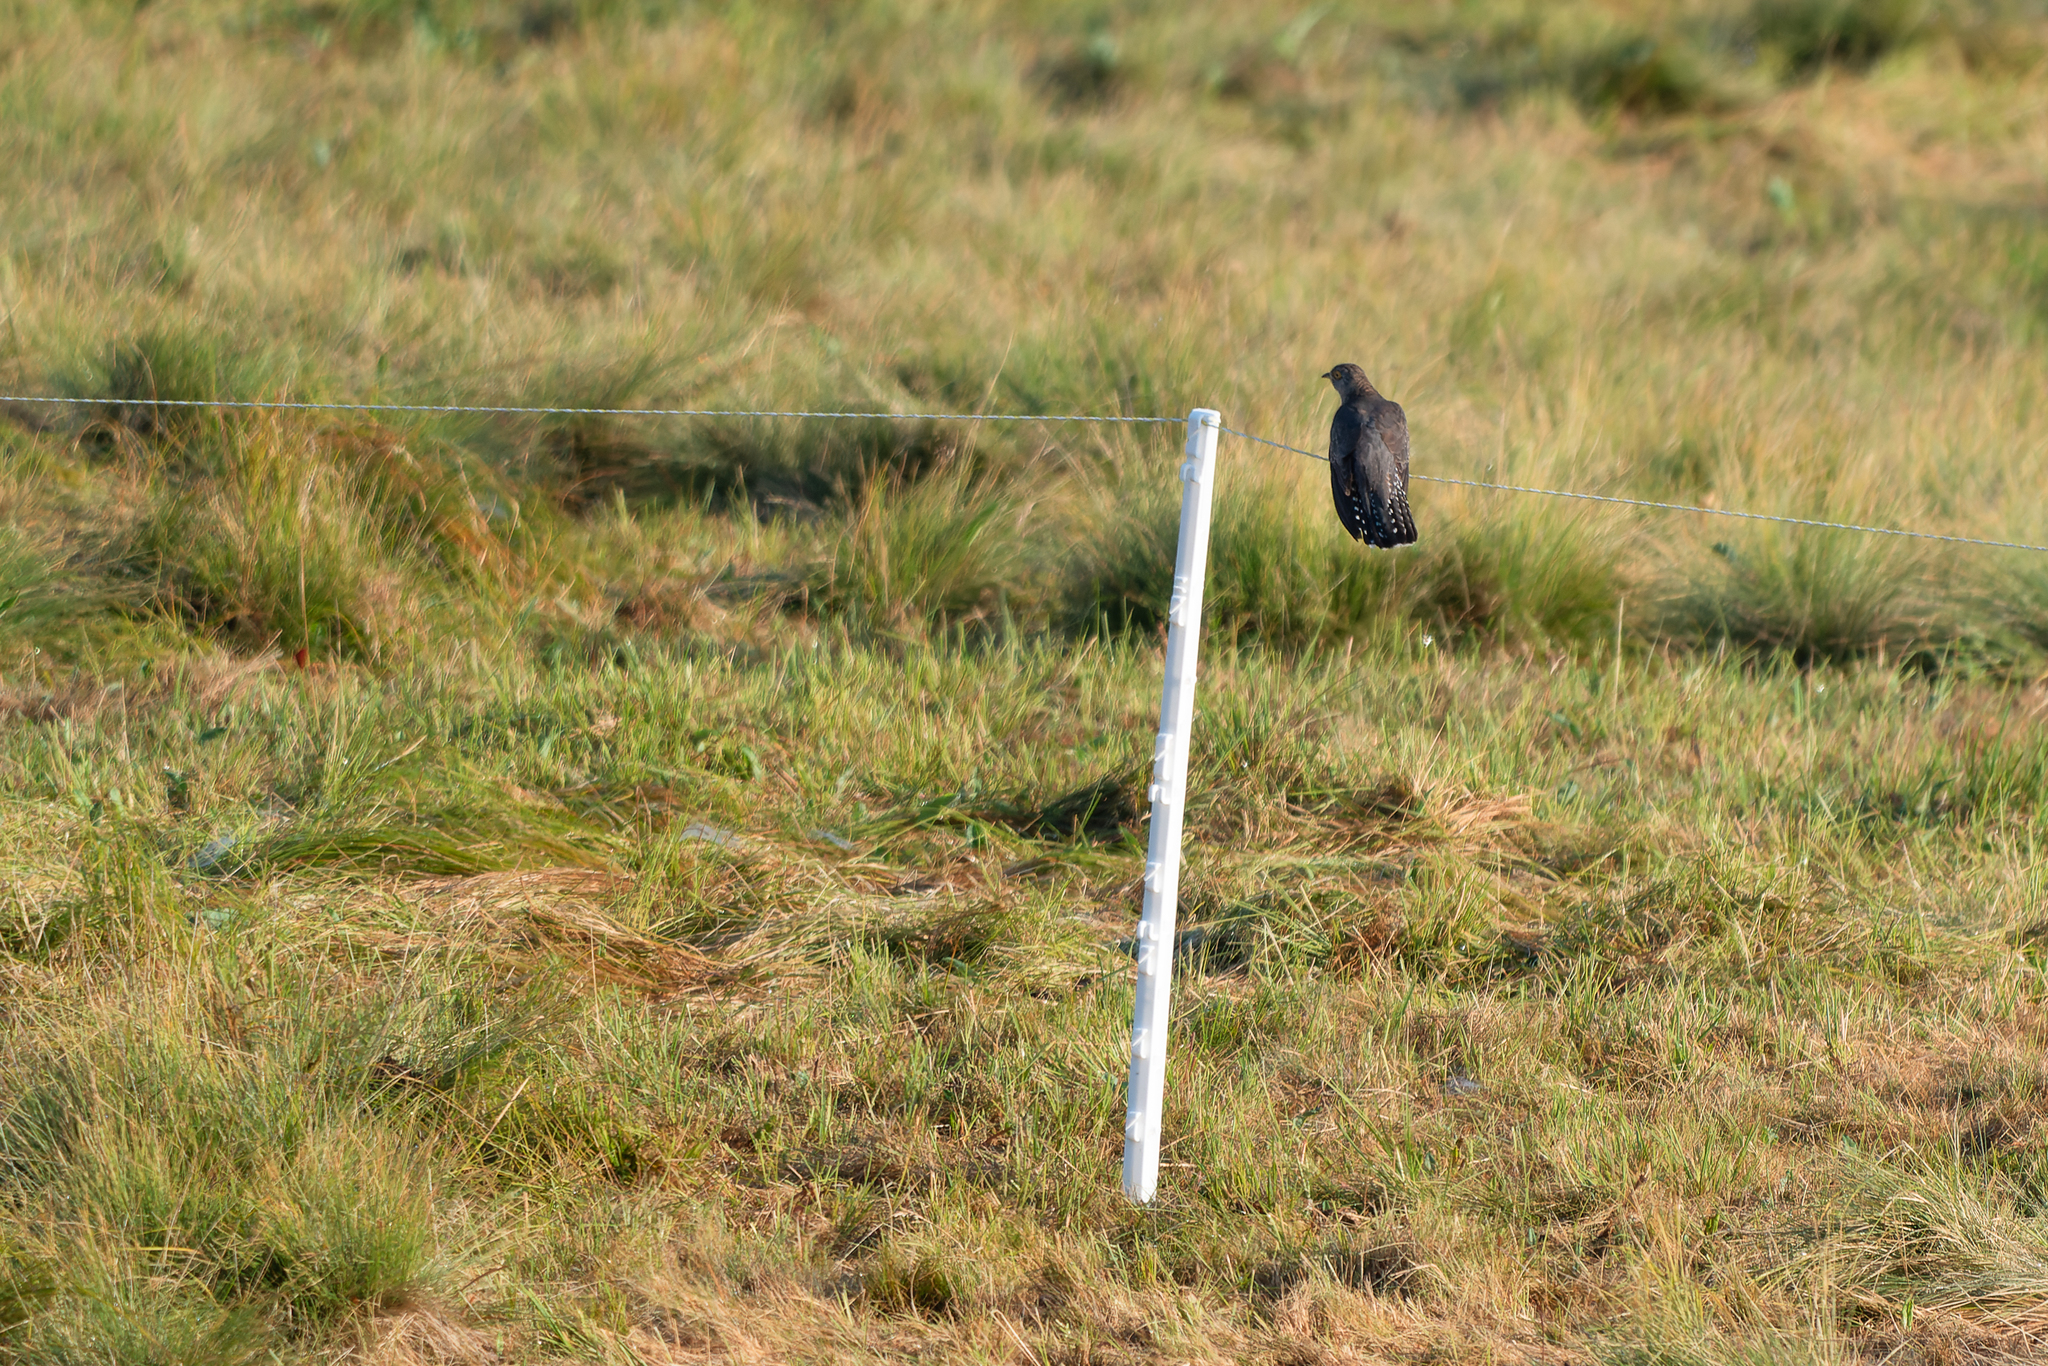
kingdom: Animalia
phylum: Chordata
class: Aves
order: Cuculiformes
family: Cuculidae
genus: Cuculus
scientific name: Cuculus canorus
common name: Common cuckoo
